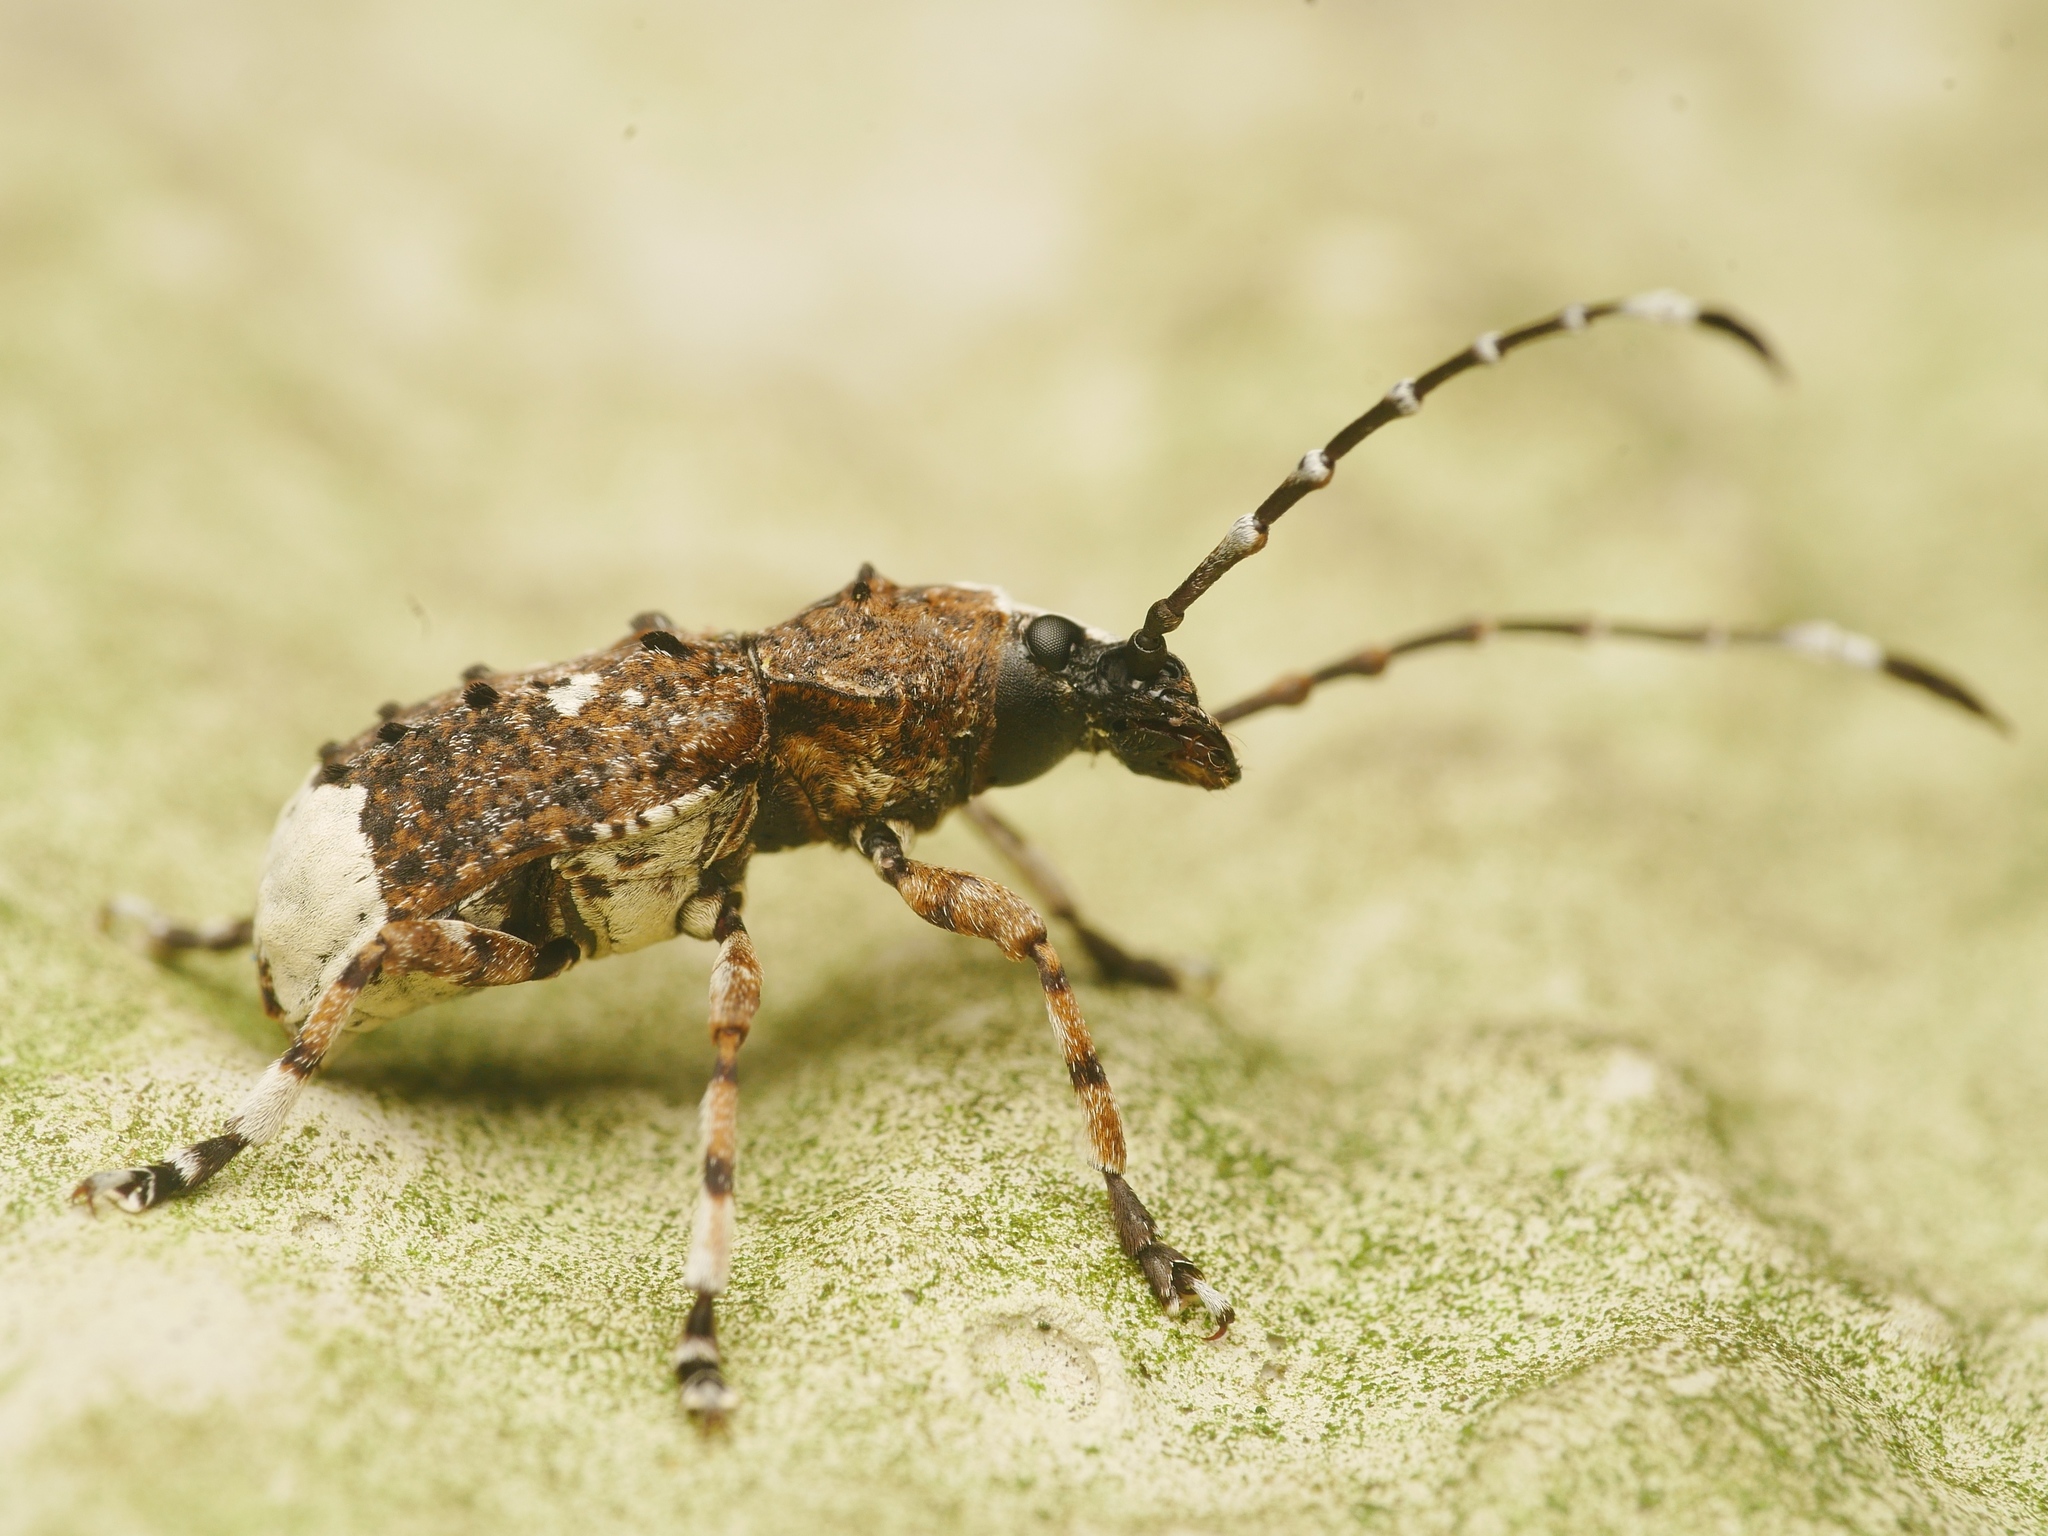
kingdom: Animalia
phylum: Arthropoda
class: Insecta
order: Coleoptera
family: Anthribidae
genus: Platystomos
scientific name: Platystomos albinus
